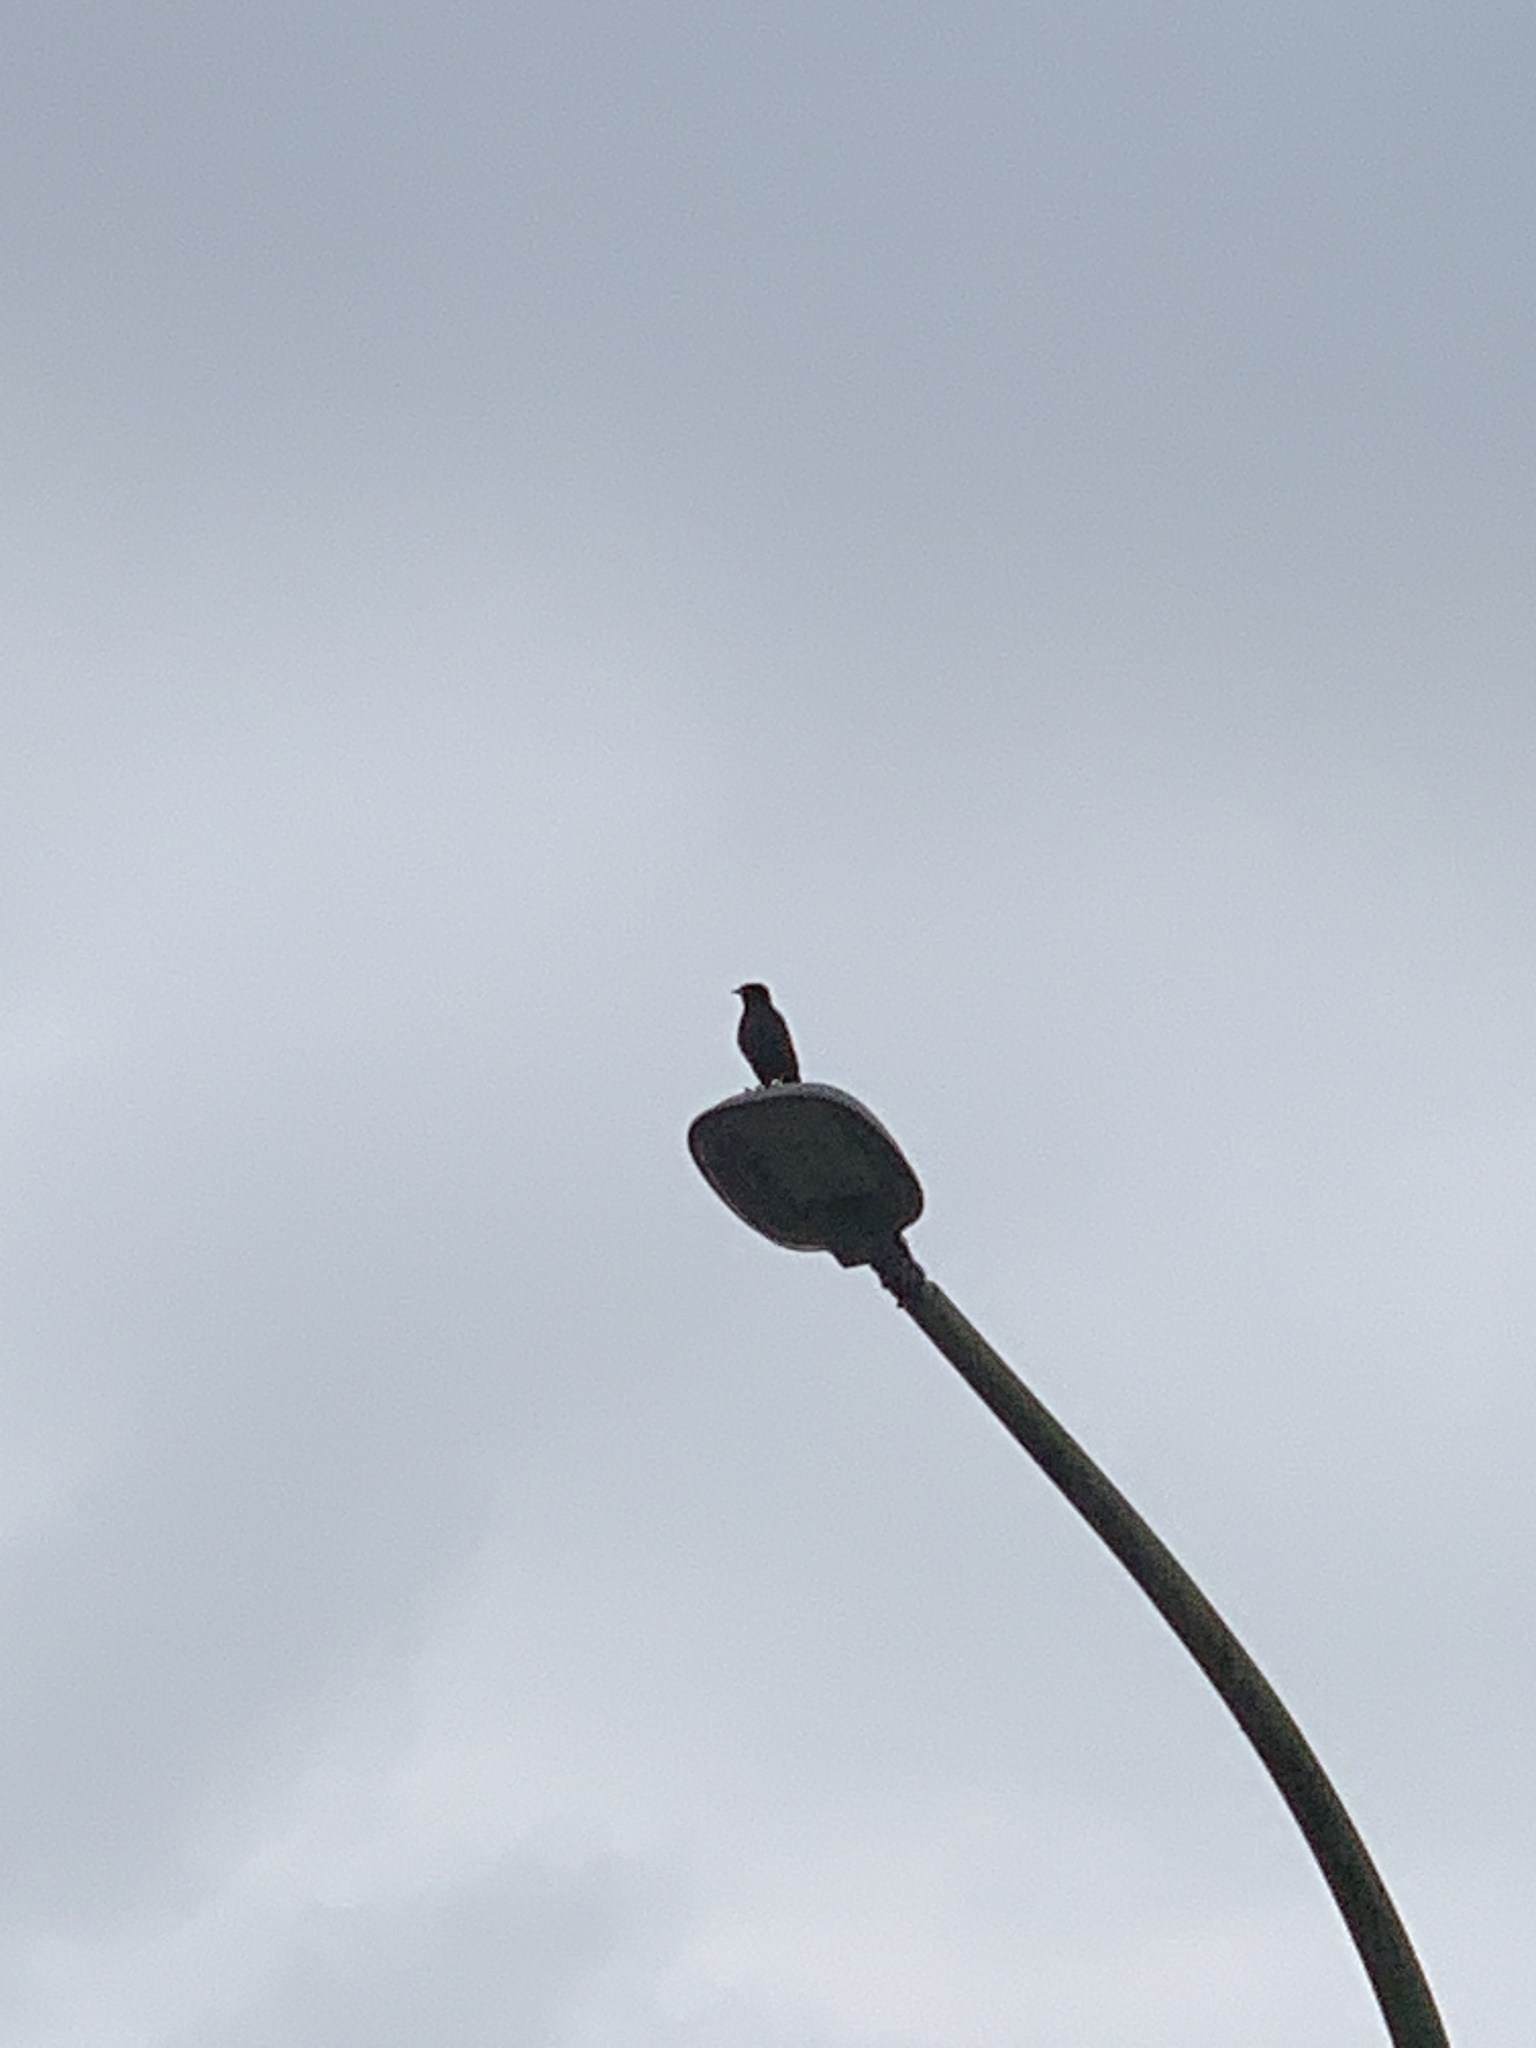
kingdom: Animalia
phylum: Chordata
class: Aves
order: Passeriformes
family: Sturnidae
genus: Acridotheres
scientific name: Acridotheres cristatellus
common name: Crested myna
